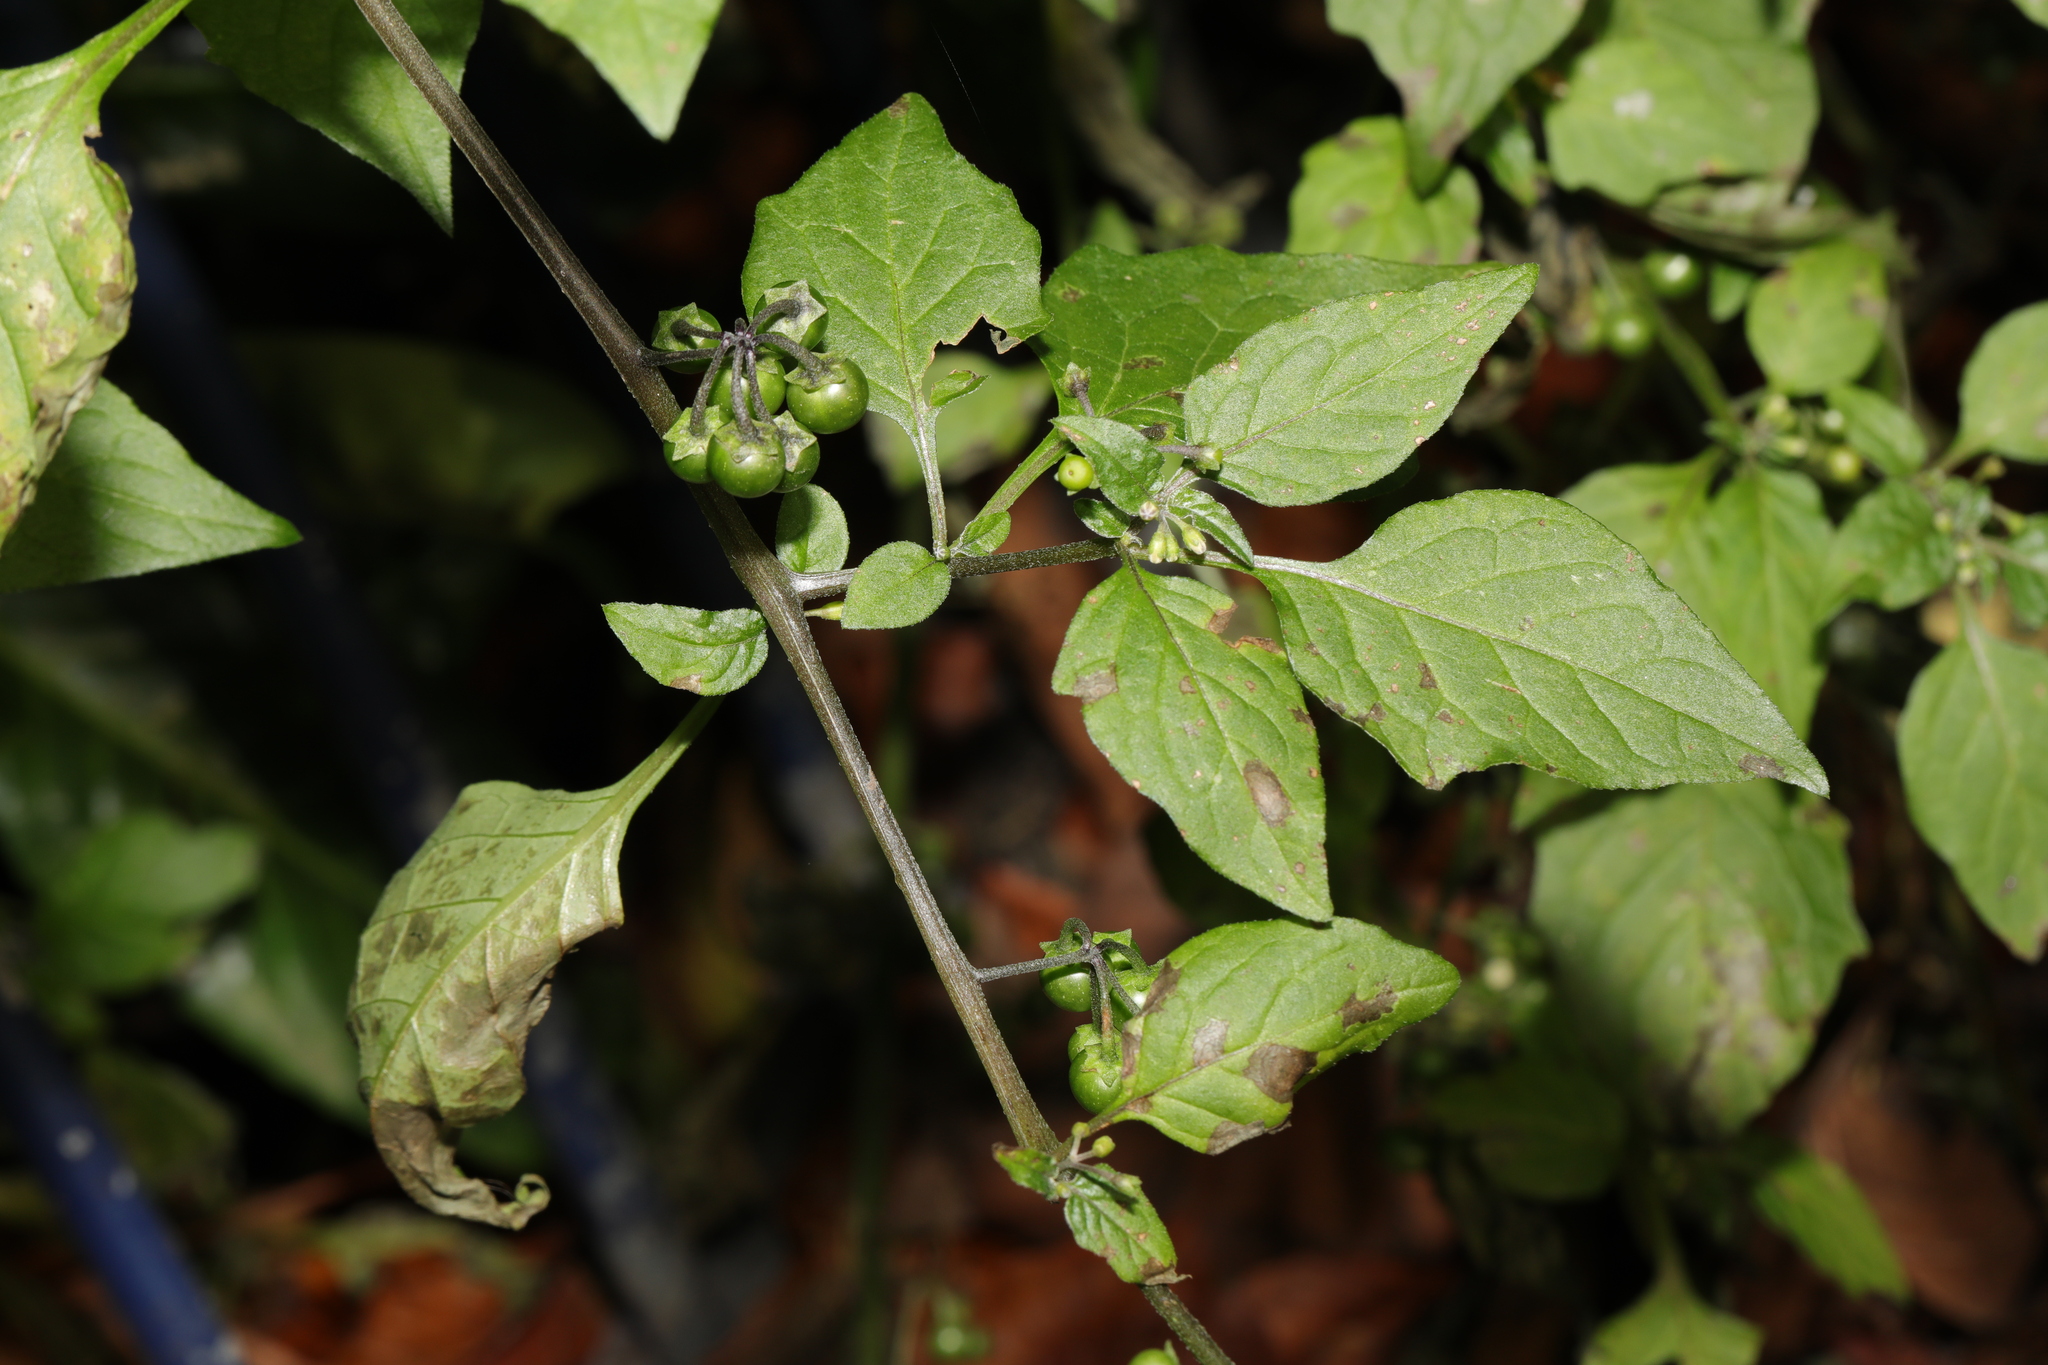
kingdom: Plantae
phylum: Tracheophyta
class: Magnoliopsida
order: Solanales
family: Solanaceae
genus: Solanum
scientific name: Solanum nigrum
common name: Black nightshade
